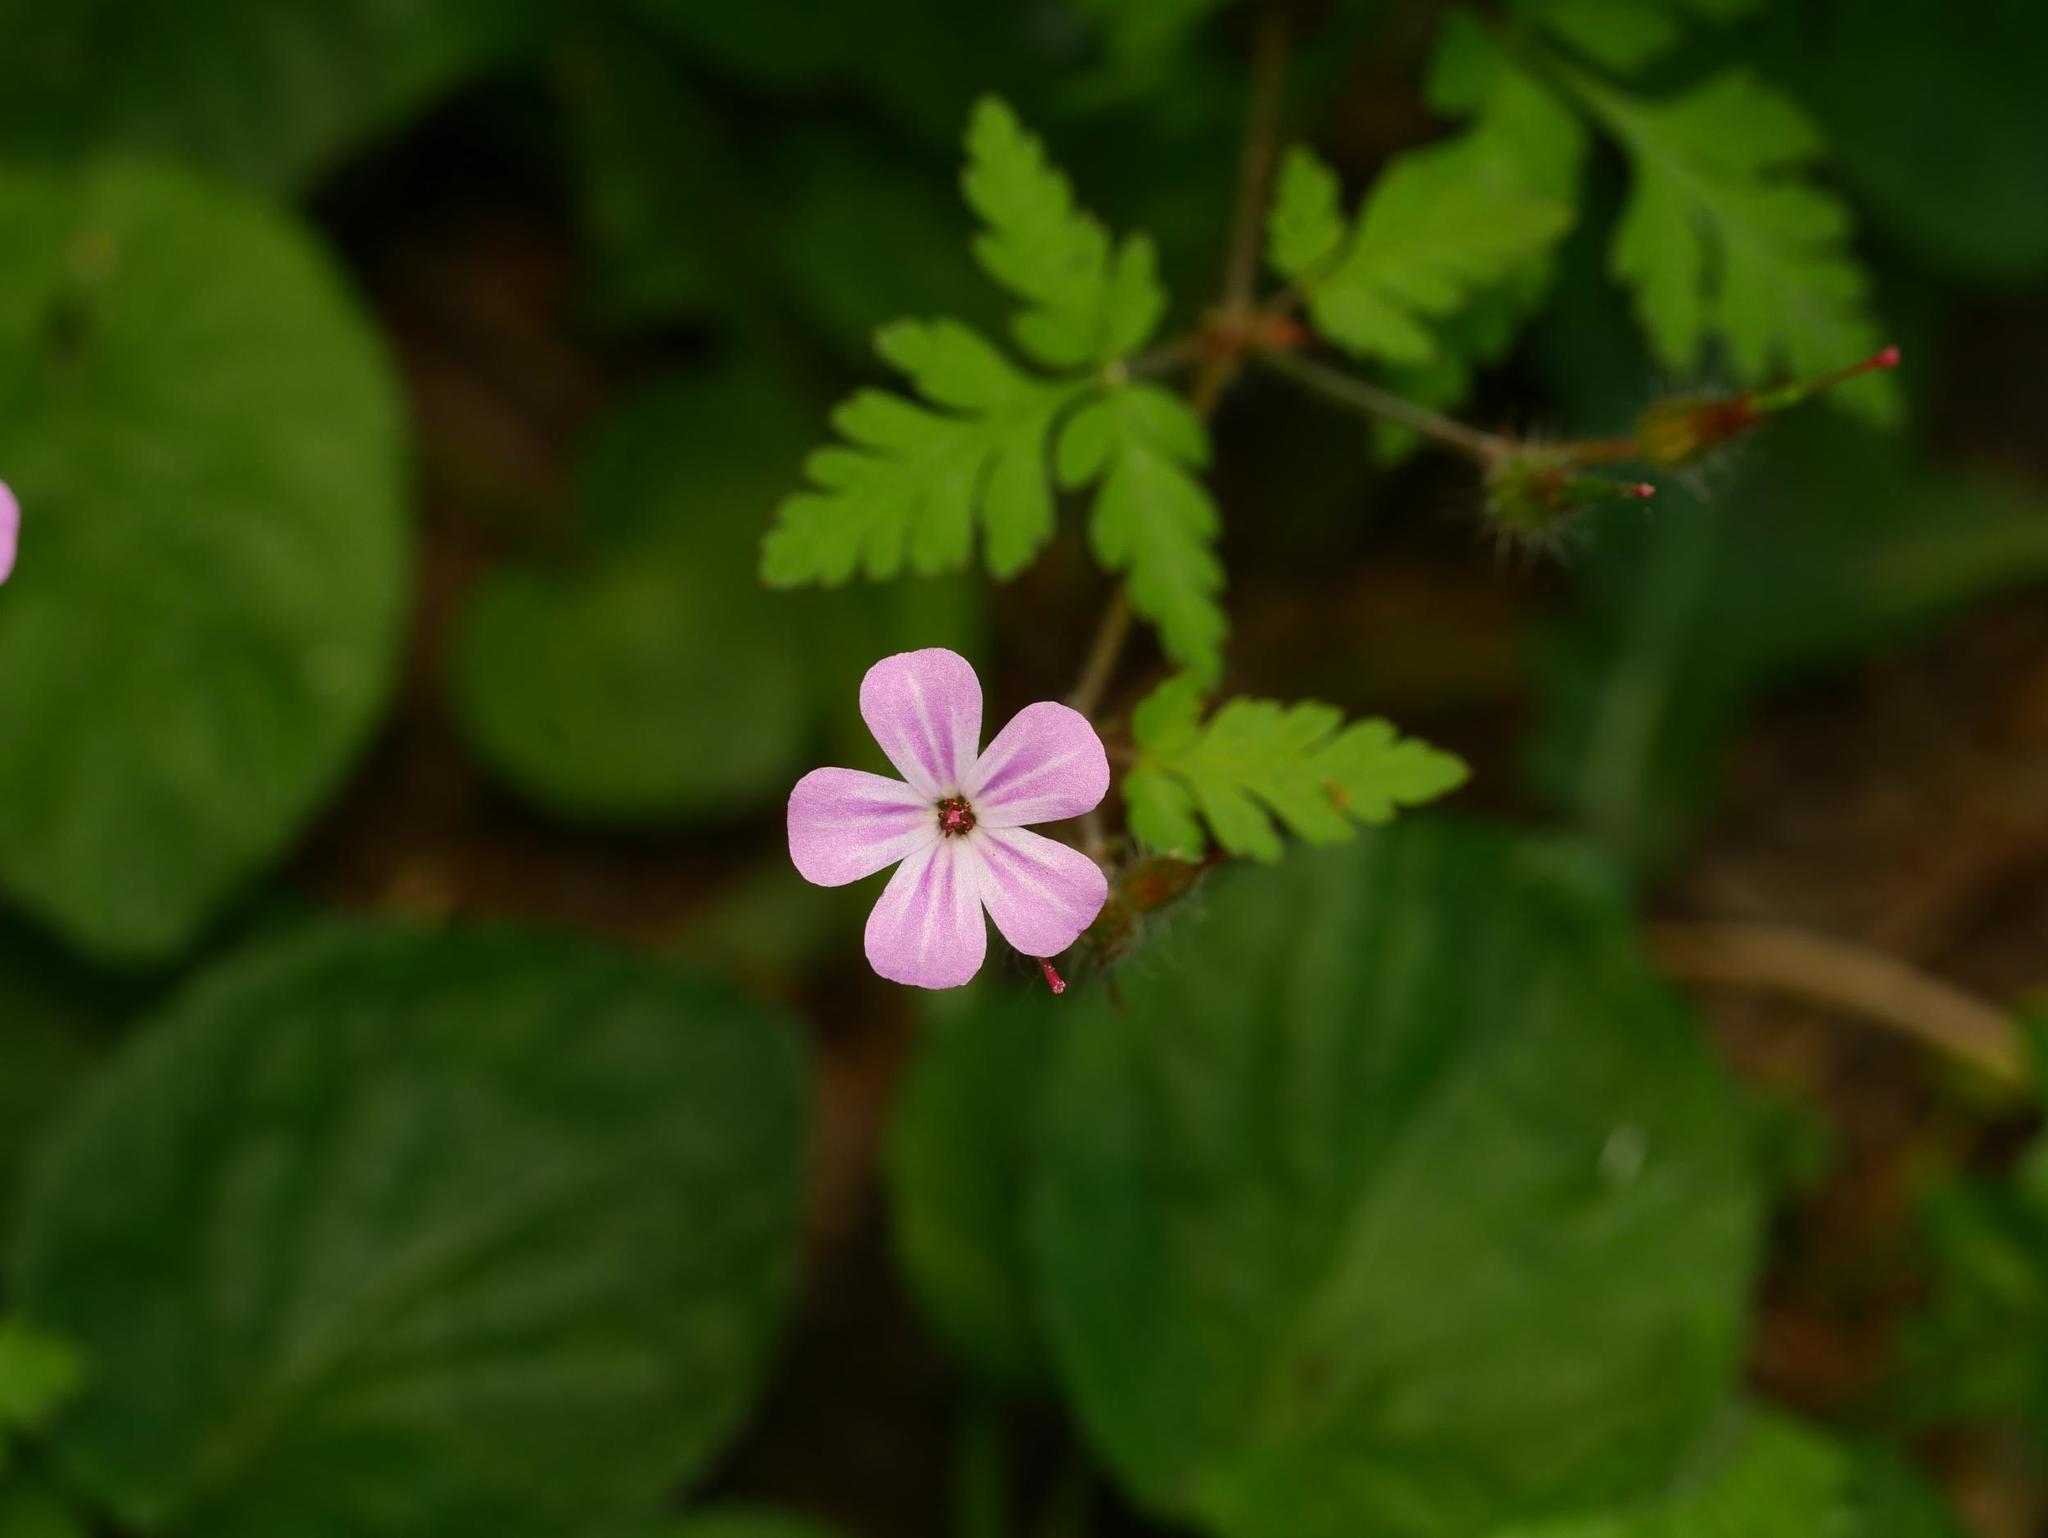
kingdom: Plantae
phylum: Tracheophyta
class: Magnoliopsida
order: Geraniales
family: Geraniaceae
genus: Geranium
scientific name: Geranium robertianum
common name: Herb-robert
